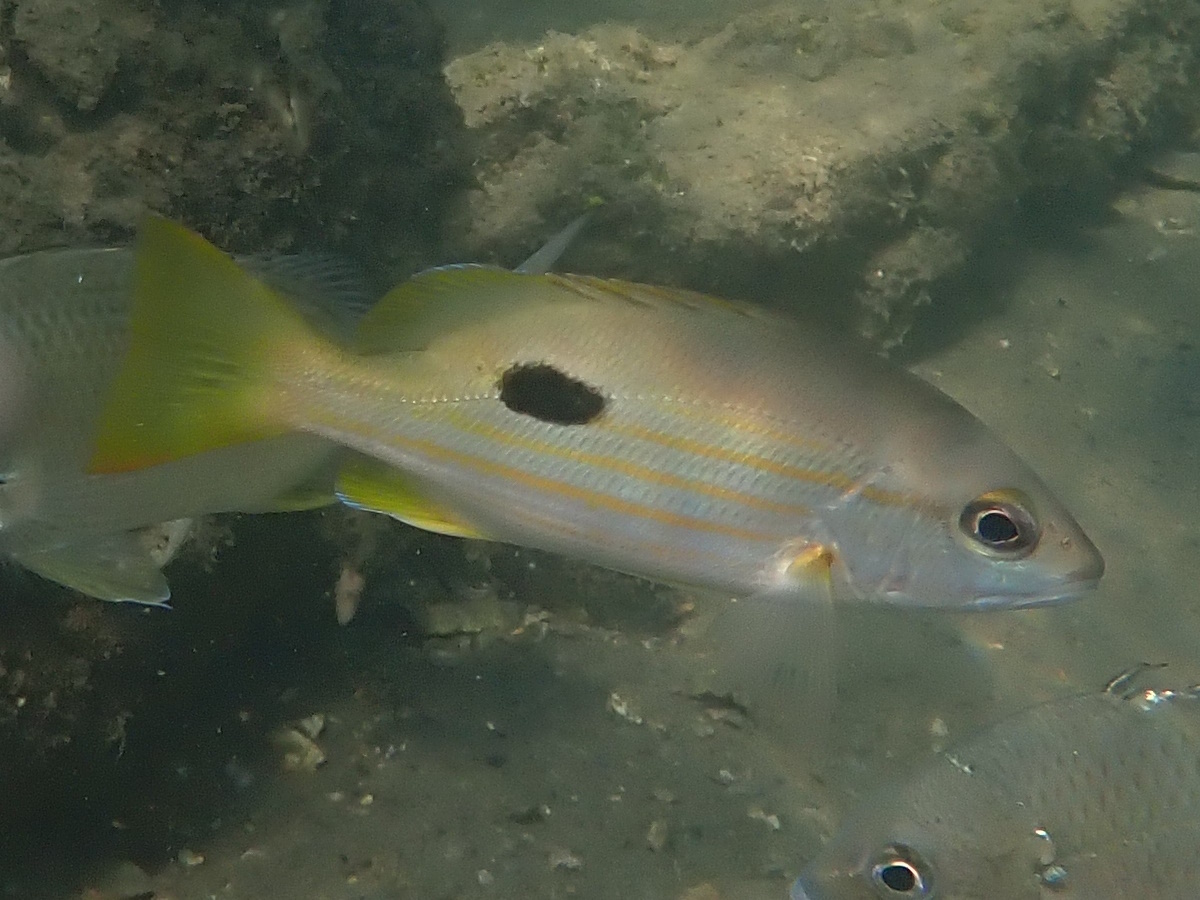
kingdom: Animalia
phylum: Chordata
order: Perciformes
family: Lutjanidae
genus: Lutjanus
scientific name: Lutjanus fulviflamma
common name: Blackspot snapper
